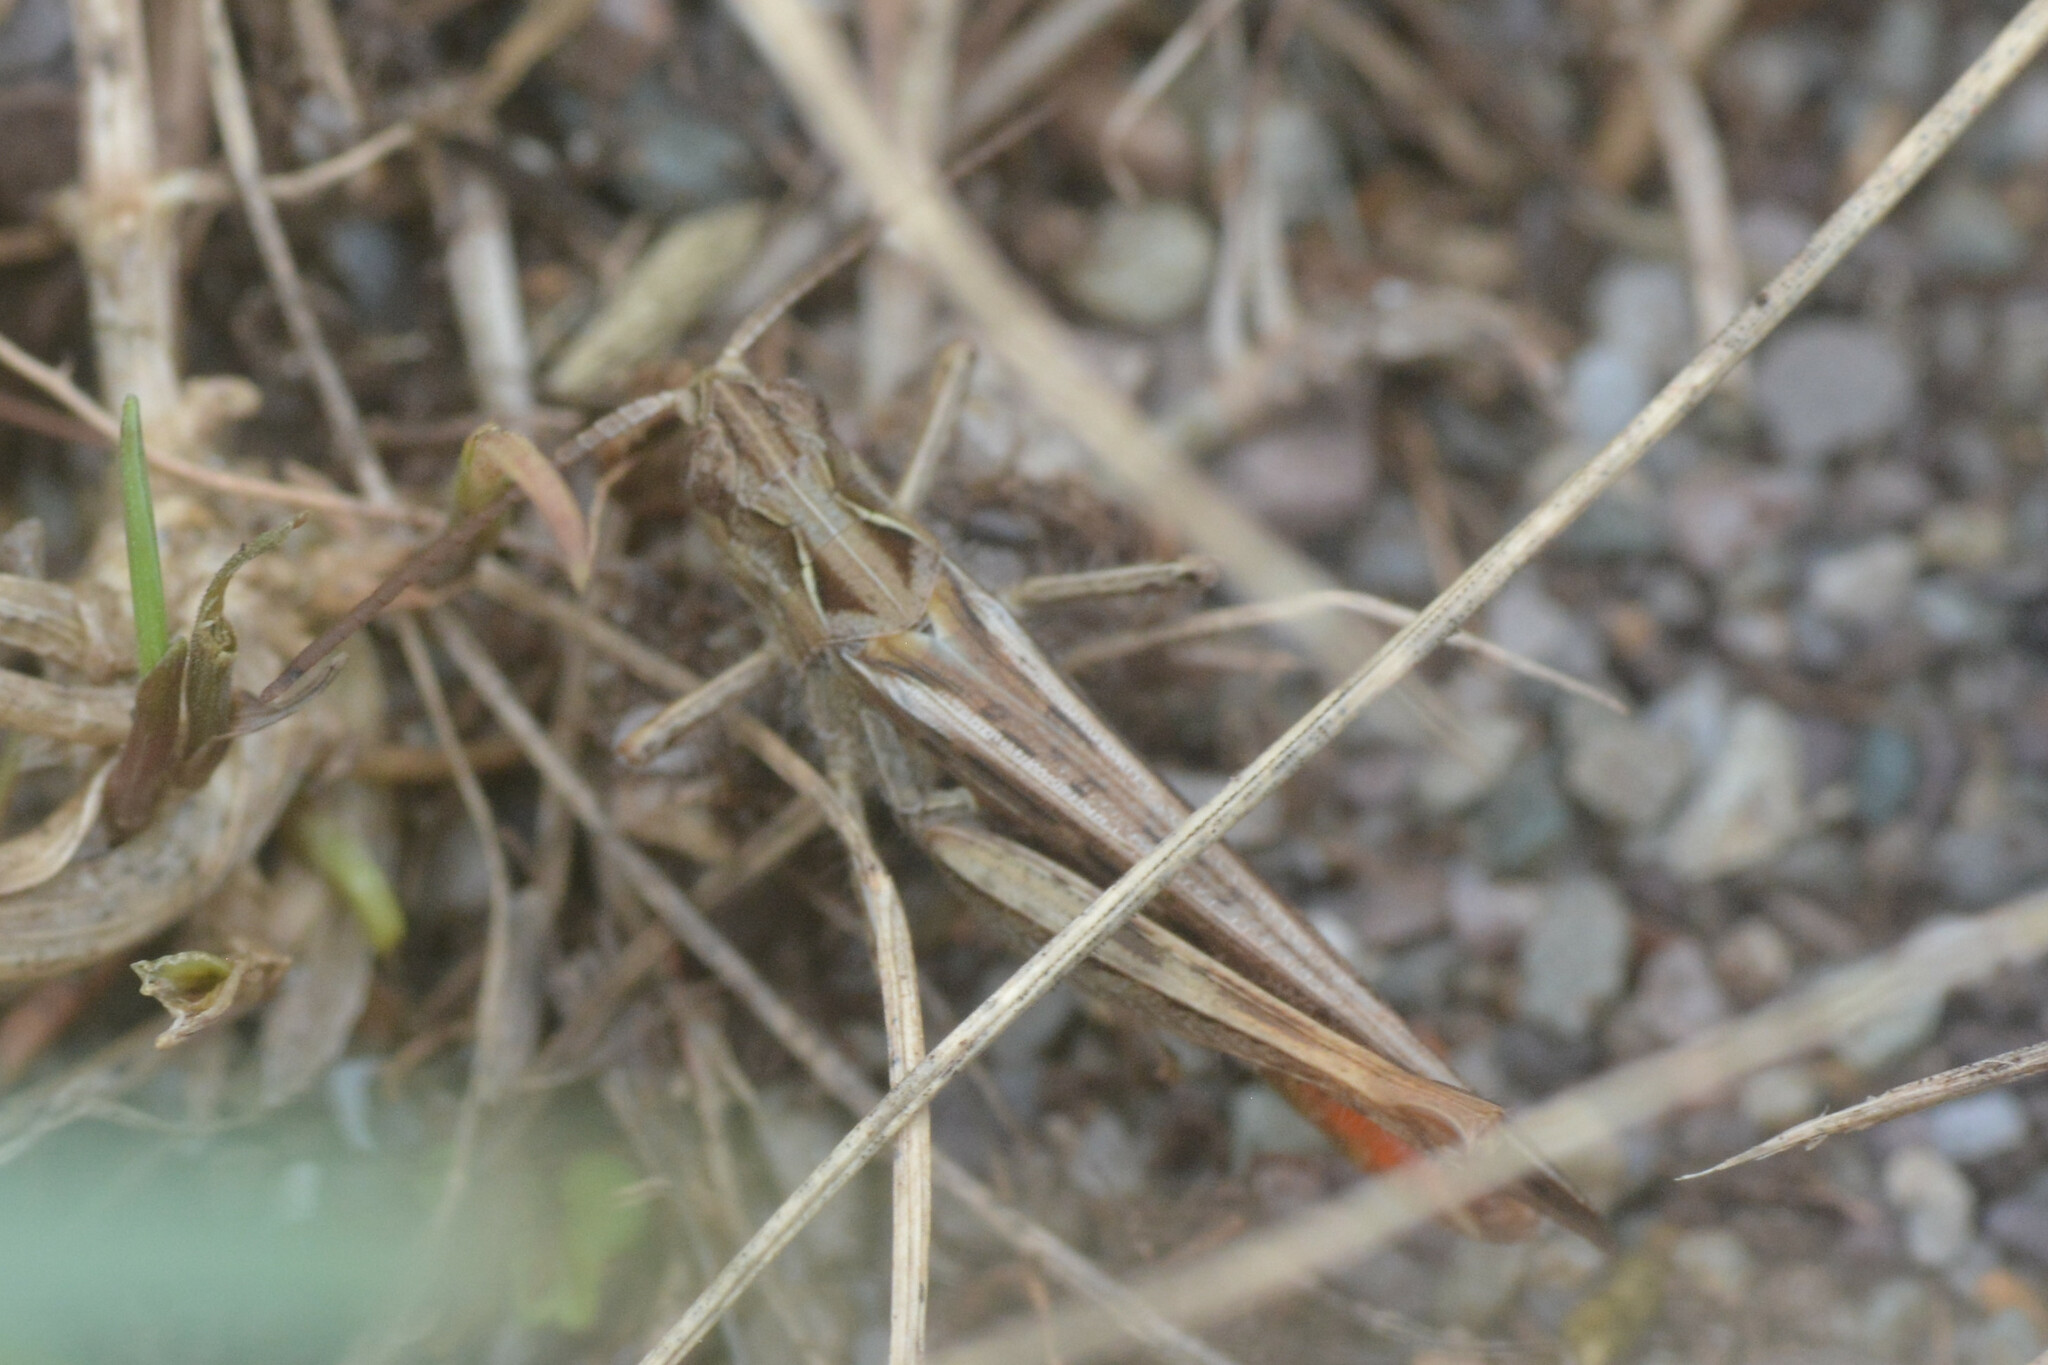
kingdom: Animalia
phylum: Arthropoda
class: Insecta
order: Orthoptera
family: Acrididae
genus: Chorthippus
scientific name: Chorthippus brunneus
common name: Field grasshopper
